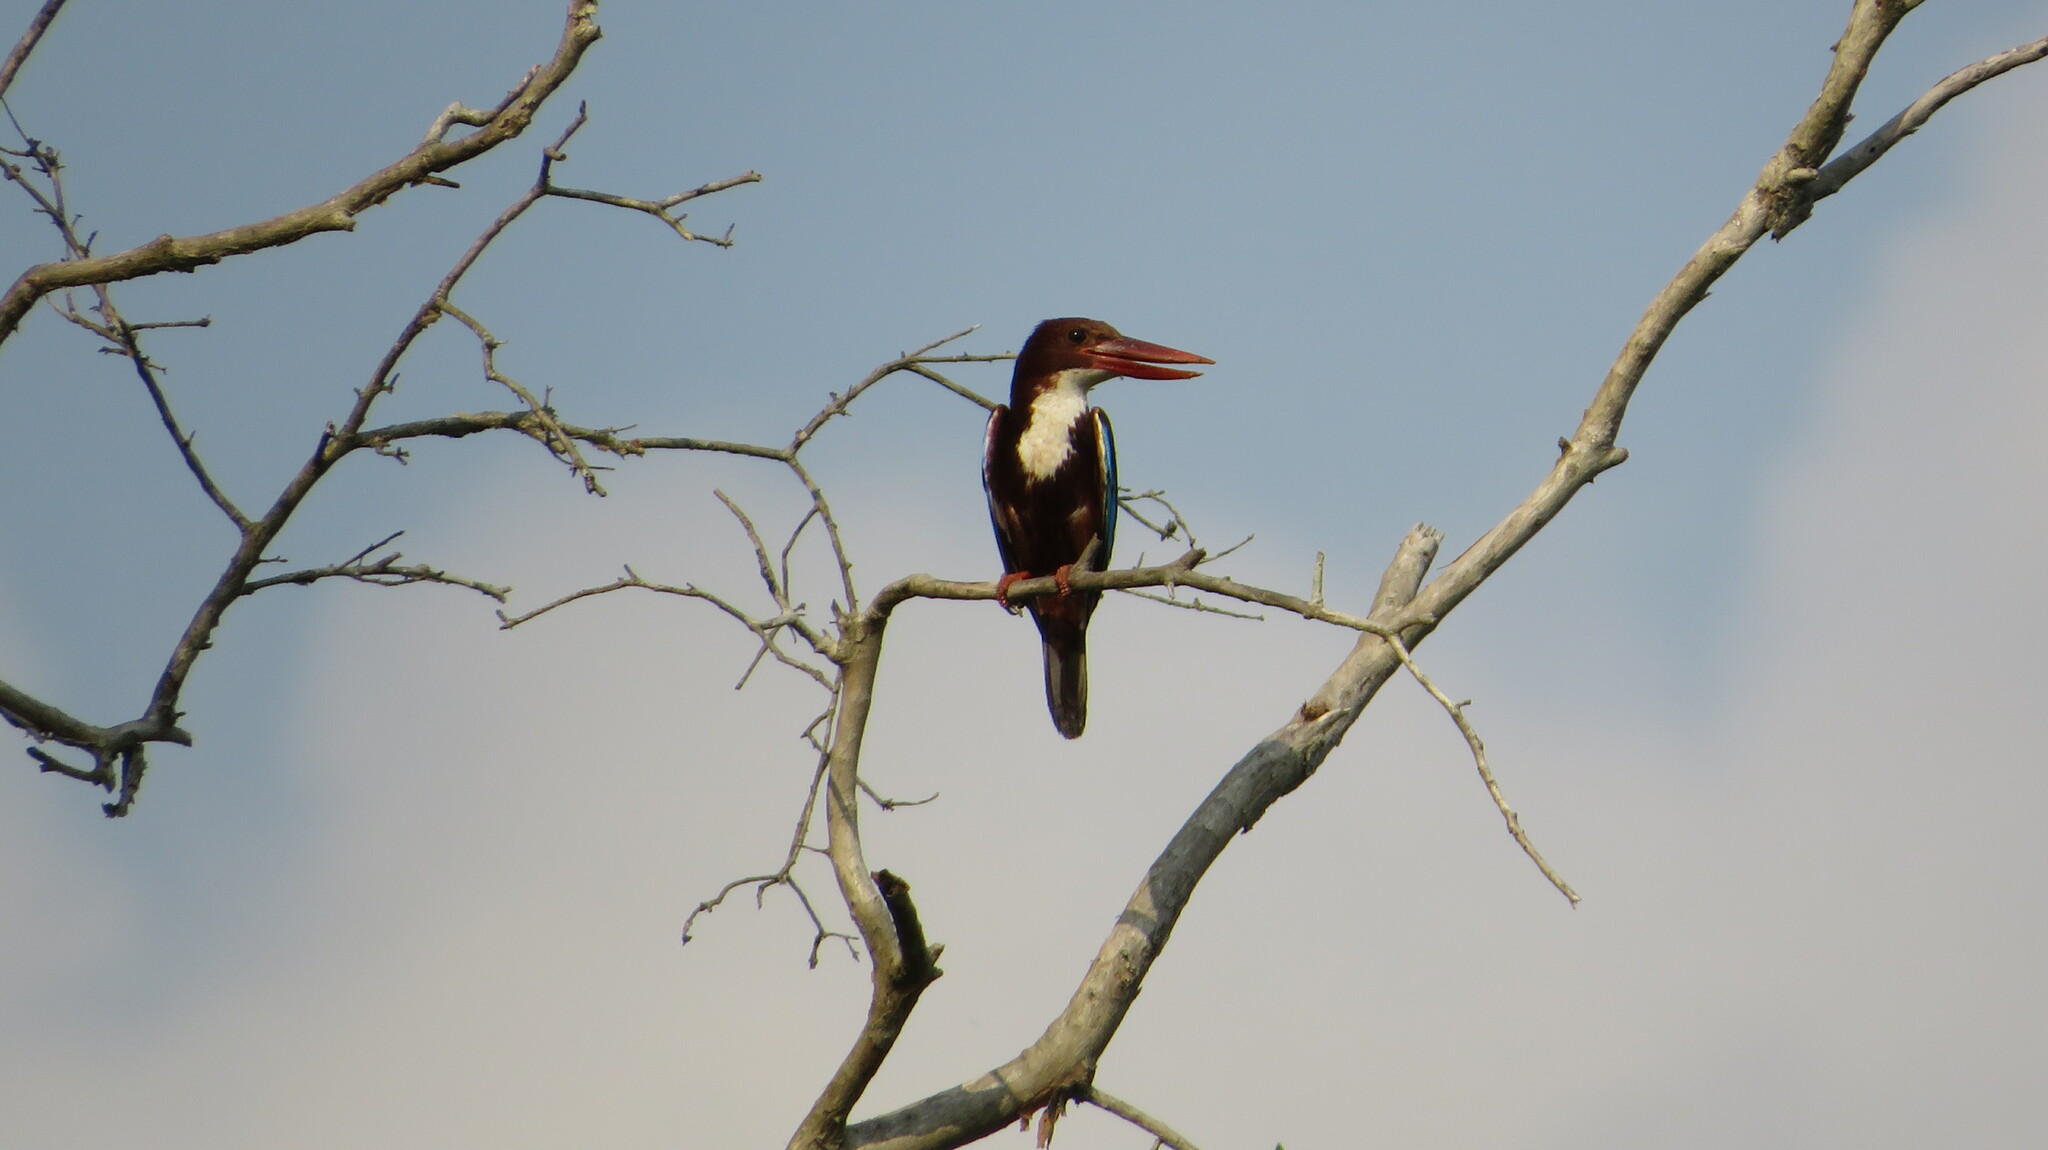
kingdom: Animalia
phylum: Chordata
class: Aves
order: Coraciiformes
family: Alcedinidae
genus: Halcyon
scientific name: Halcyon smyrnensis
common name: White-throated kingfisher
